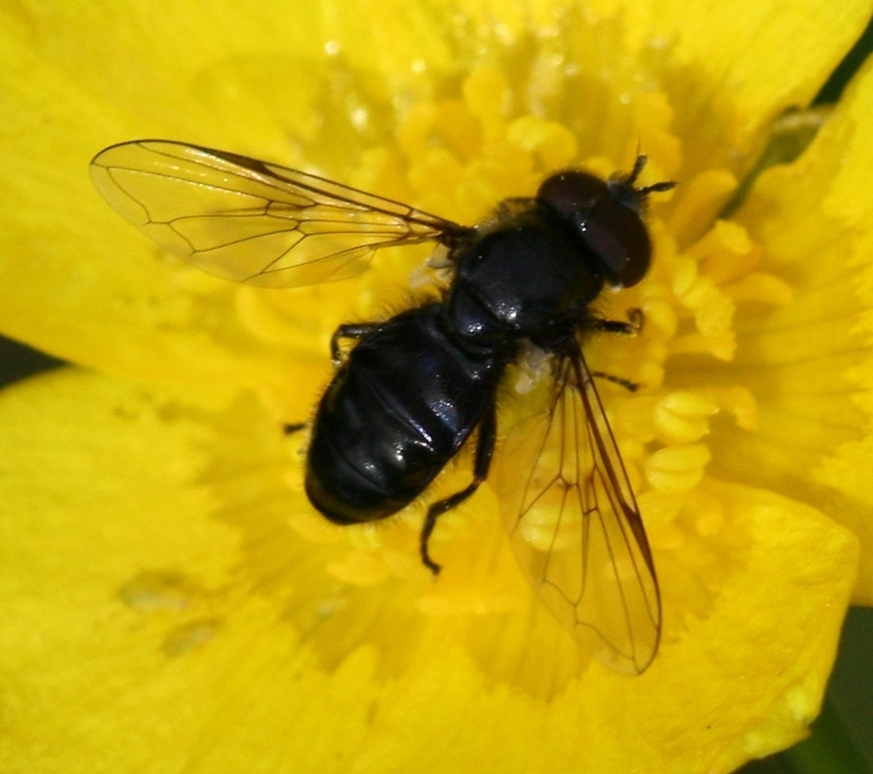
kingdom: Animalia
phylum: Arthropoda
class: Insecta
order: Diptera
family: Syrphidae
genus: Pipiza
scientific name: Pipiza
